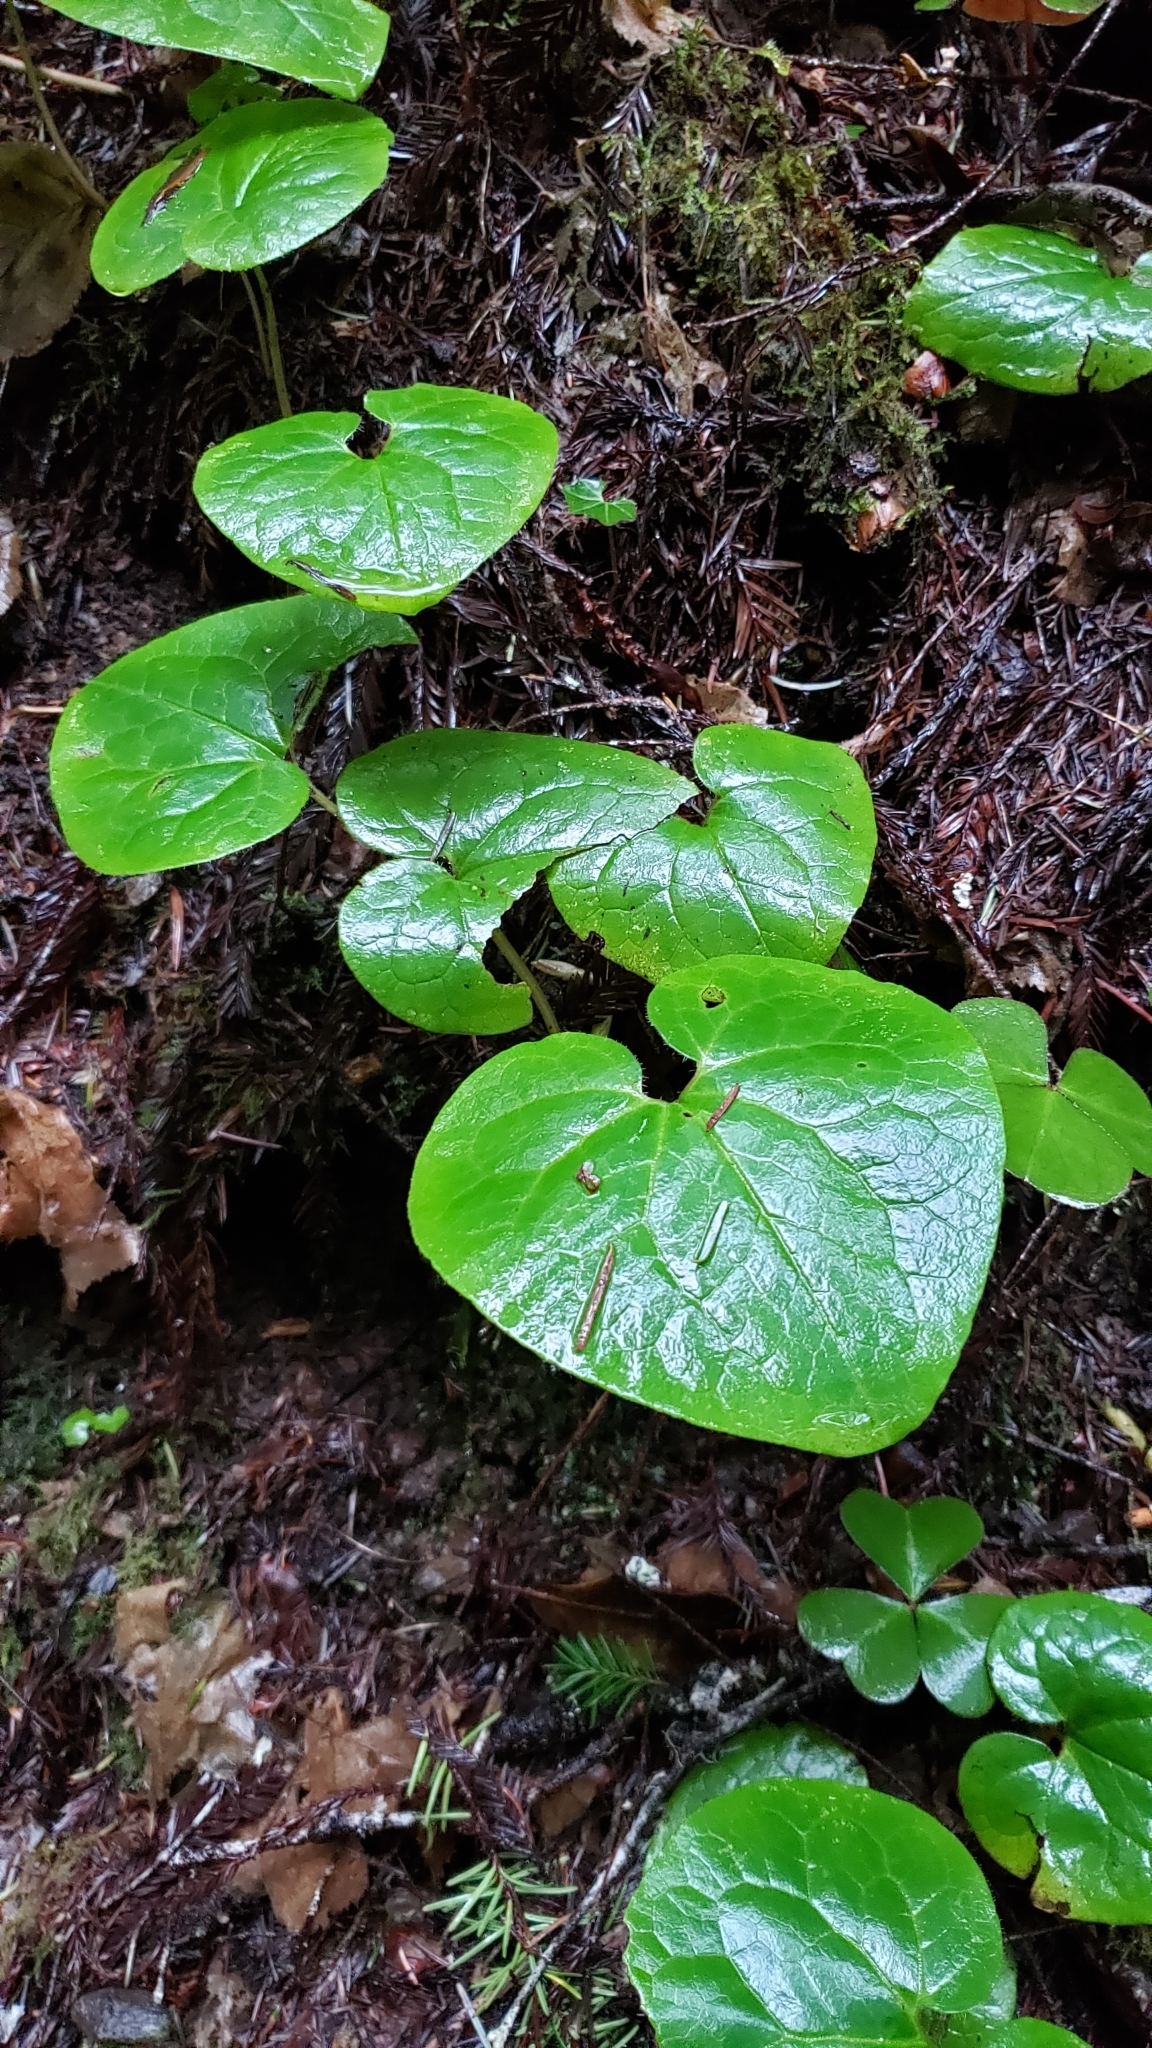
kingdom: Plantae
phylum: Tracheophyta
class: Magnoliopsida
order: Piperales
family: Aristolochiaceae
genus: Asarum
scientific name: Asarum caudatum
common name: Wild ginger
